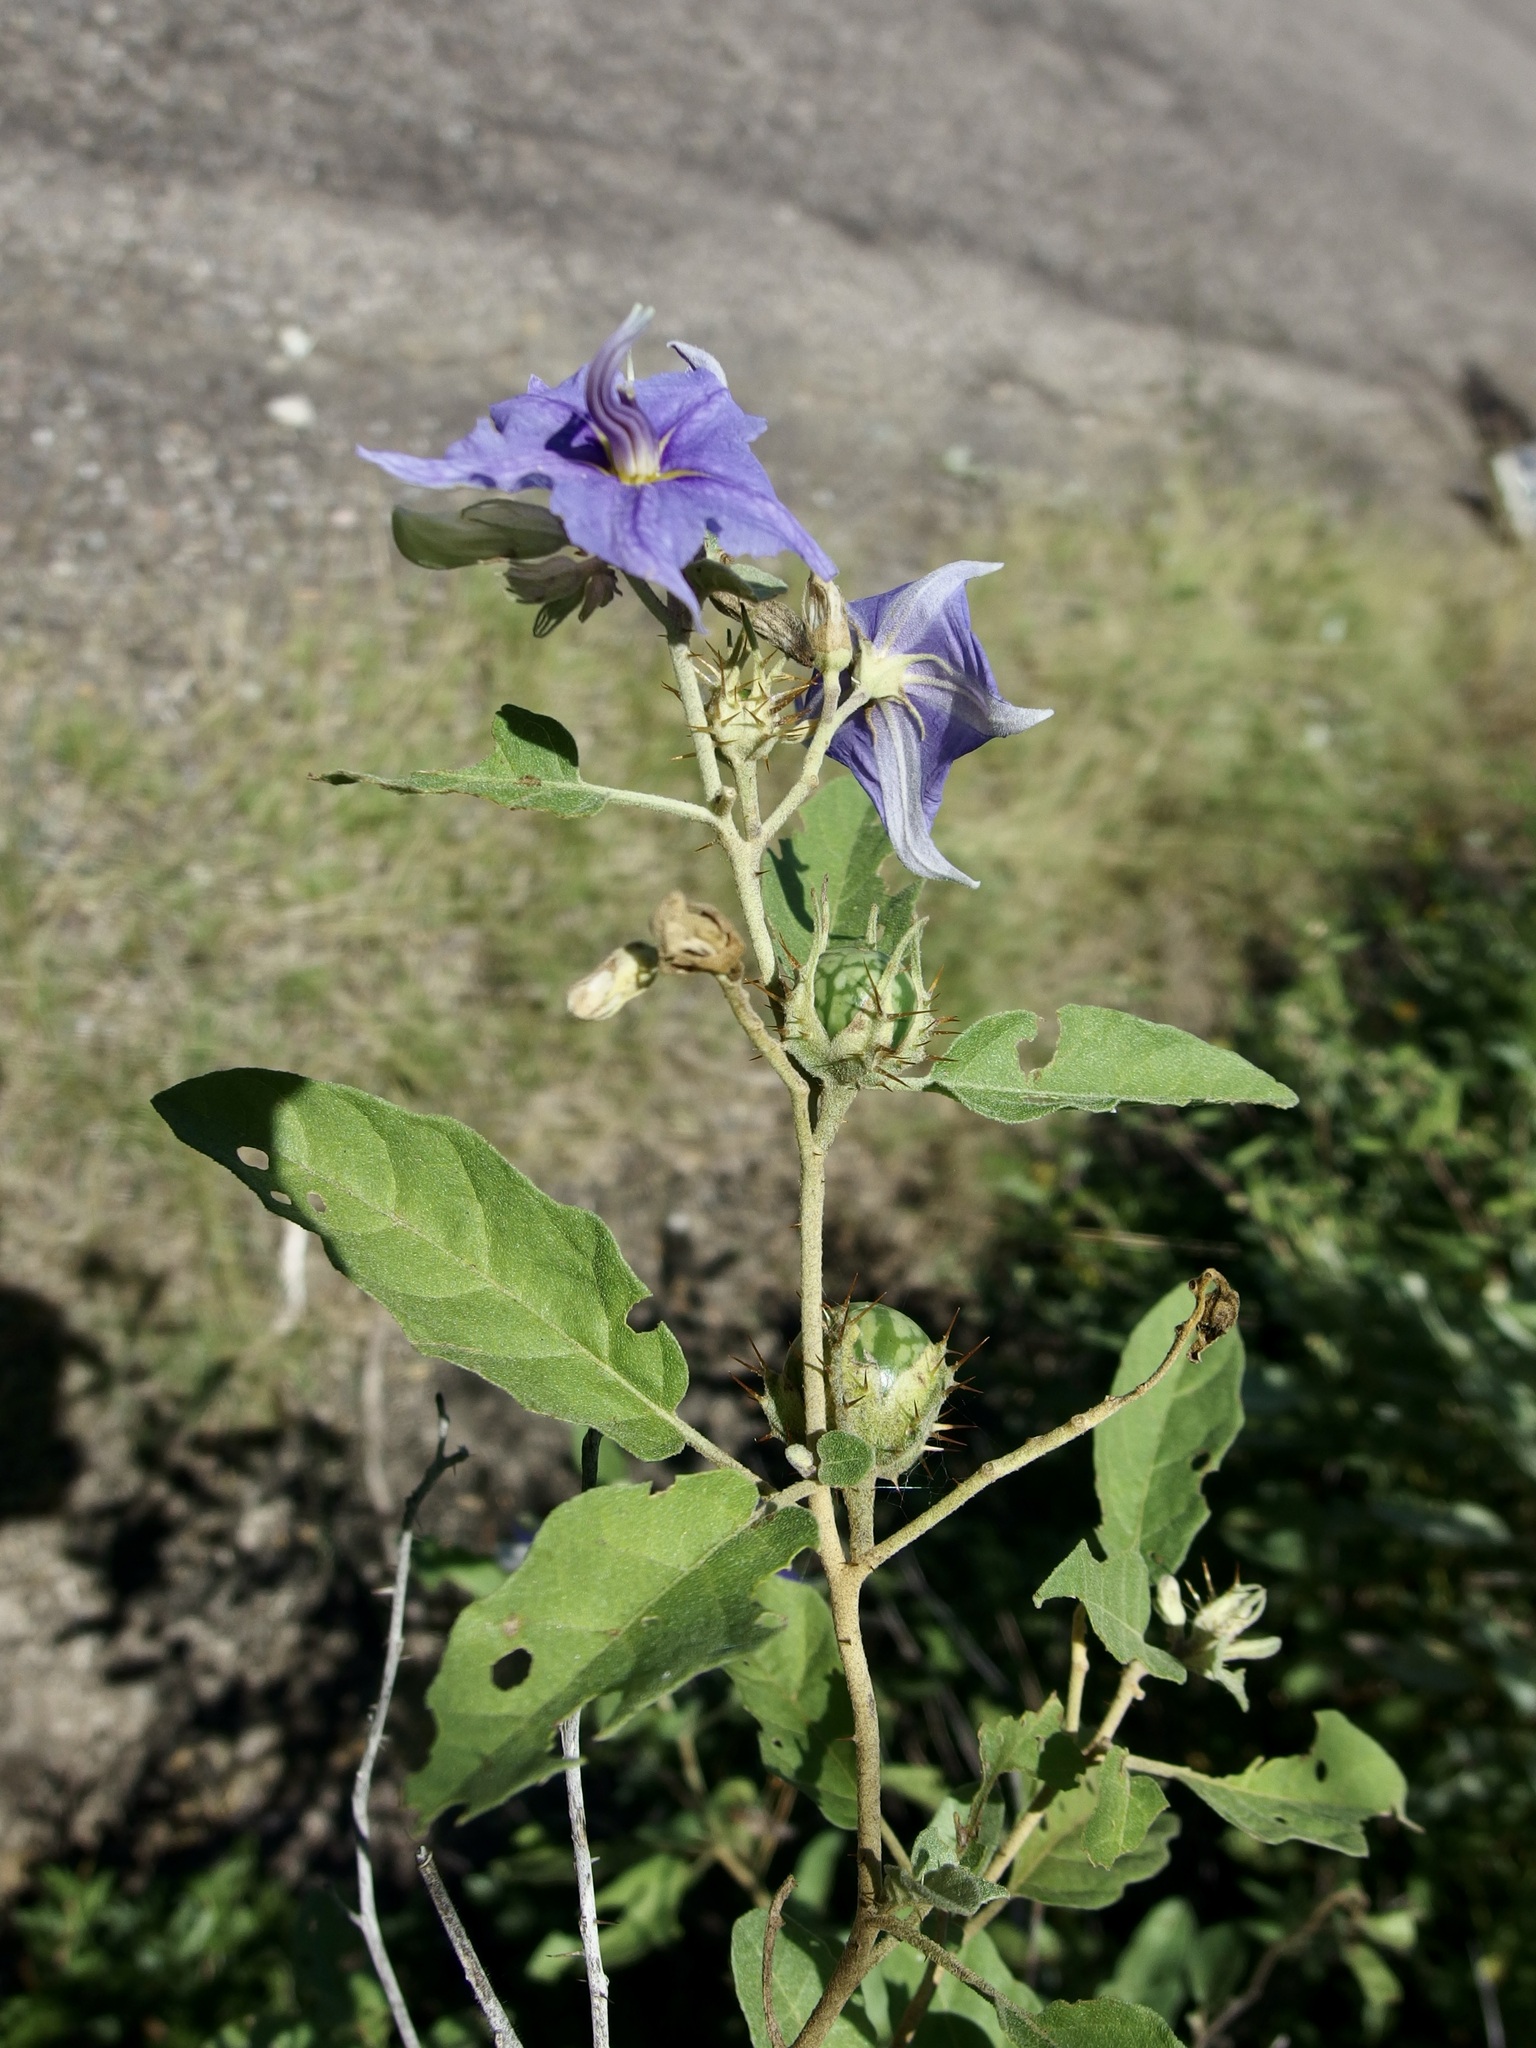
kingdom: Plantae
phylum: Tracheophyta
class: Magnoliopsida
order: Solanales
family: Solanaceae
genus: Solanum
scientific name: Solanum houstonii
